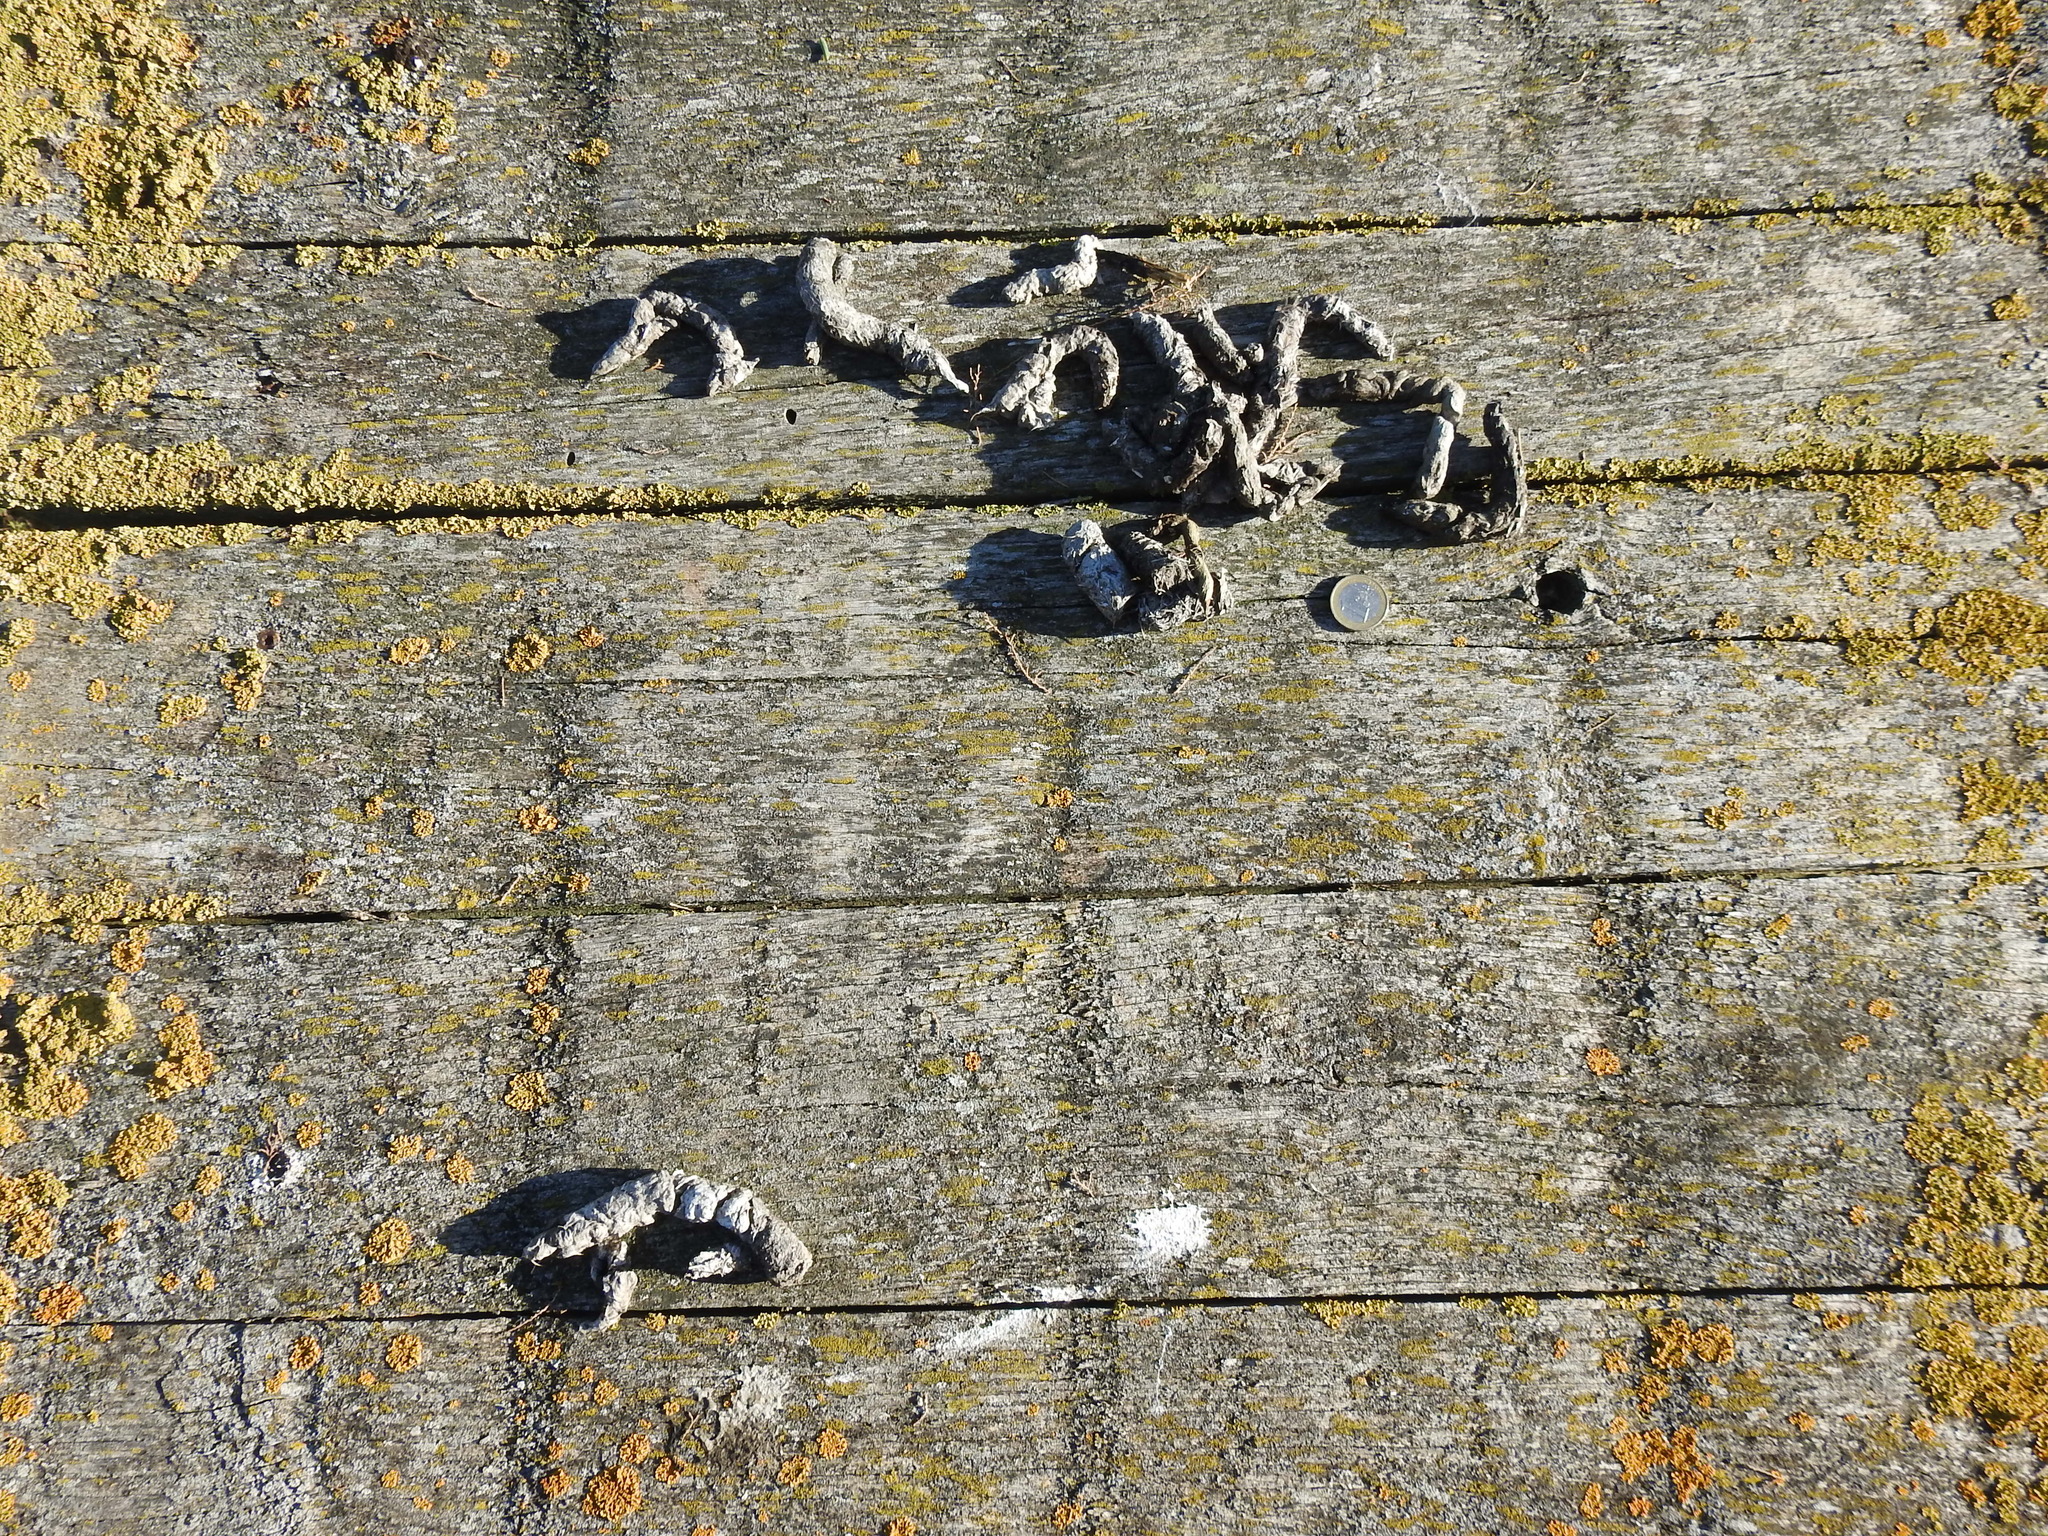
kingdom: Animalia
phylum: Chordata
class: Mammalia
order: Carnivora
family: Viverridae
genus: Genetta
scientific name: Genetta genetta
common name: Common genet
